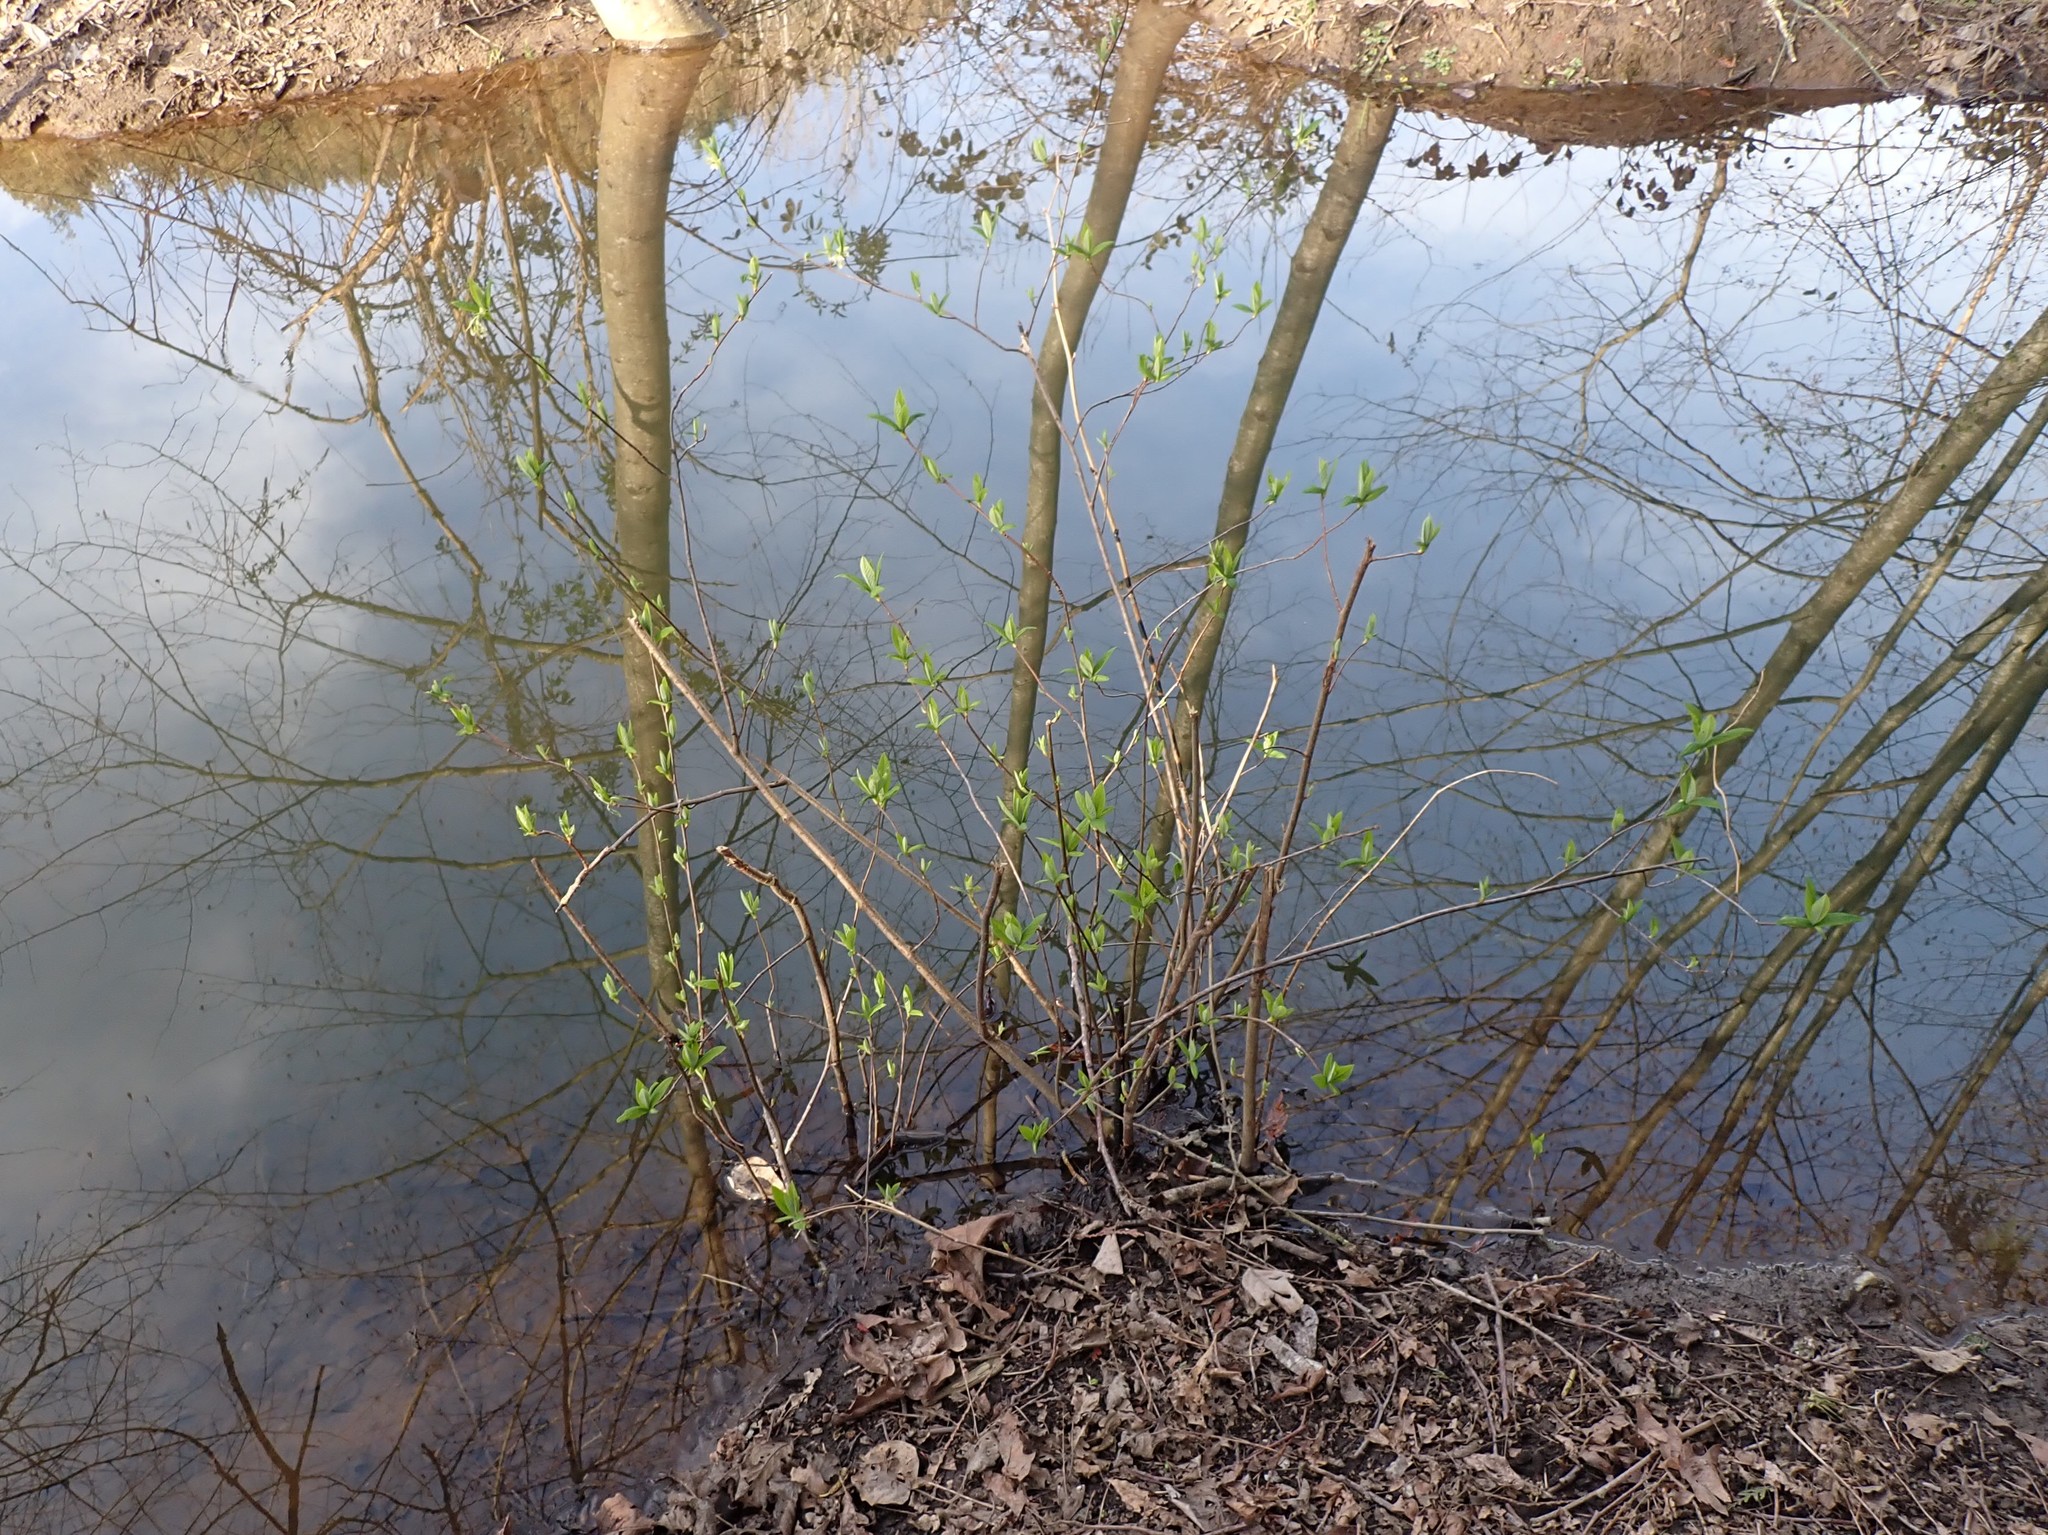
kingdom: Plantae
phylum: Tracheophyta
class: Magnoliopsida
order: Rosales
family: Rosaceae
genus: Oemleria
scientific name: Oemleria cerasiformis
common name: Osoberry
